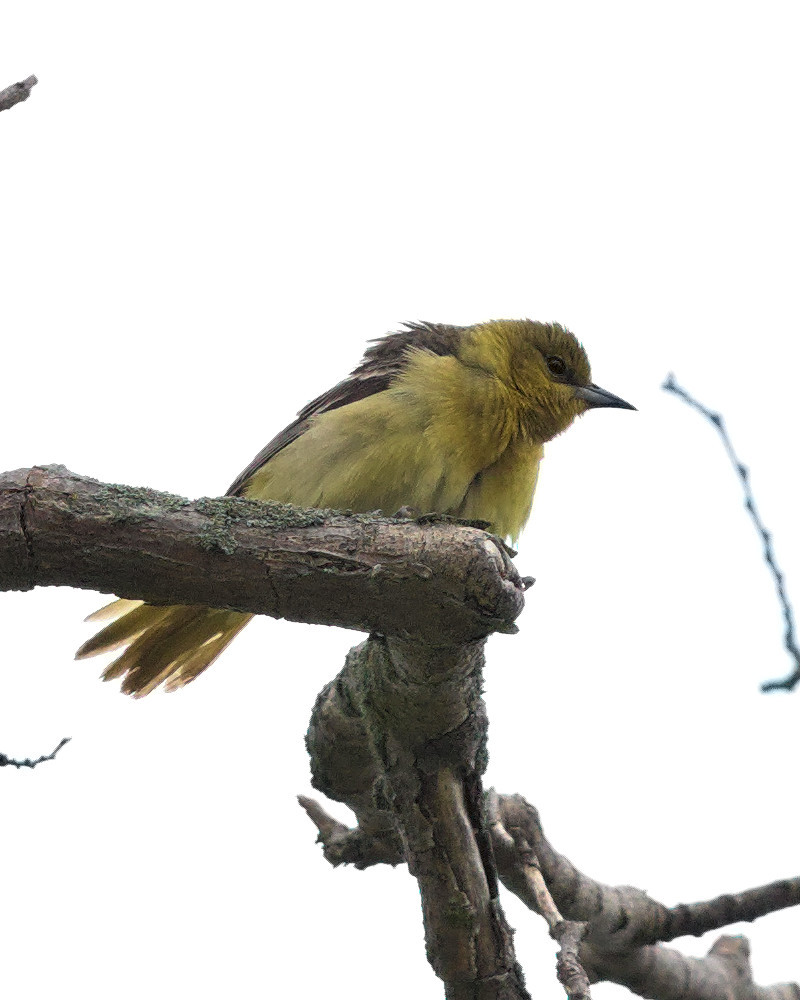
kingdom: Animalia
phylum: Chordata
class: Aves
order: Passeriformes
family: Icteridae
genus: Icterus
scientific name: Icterus spurius
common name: Orchard oriole
